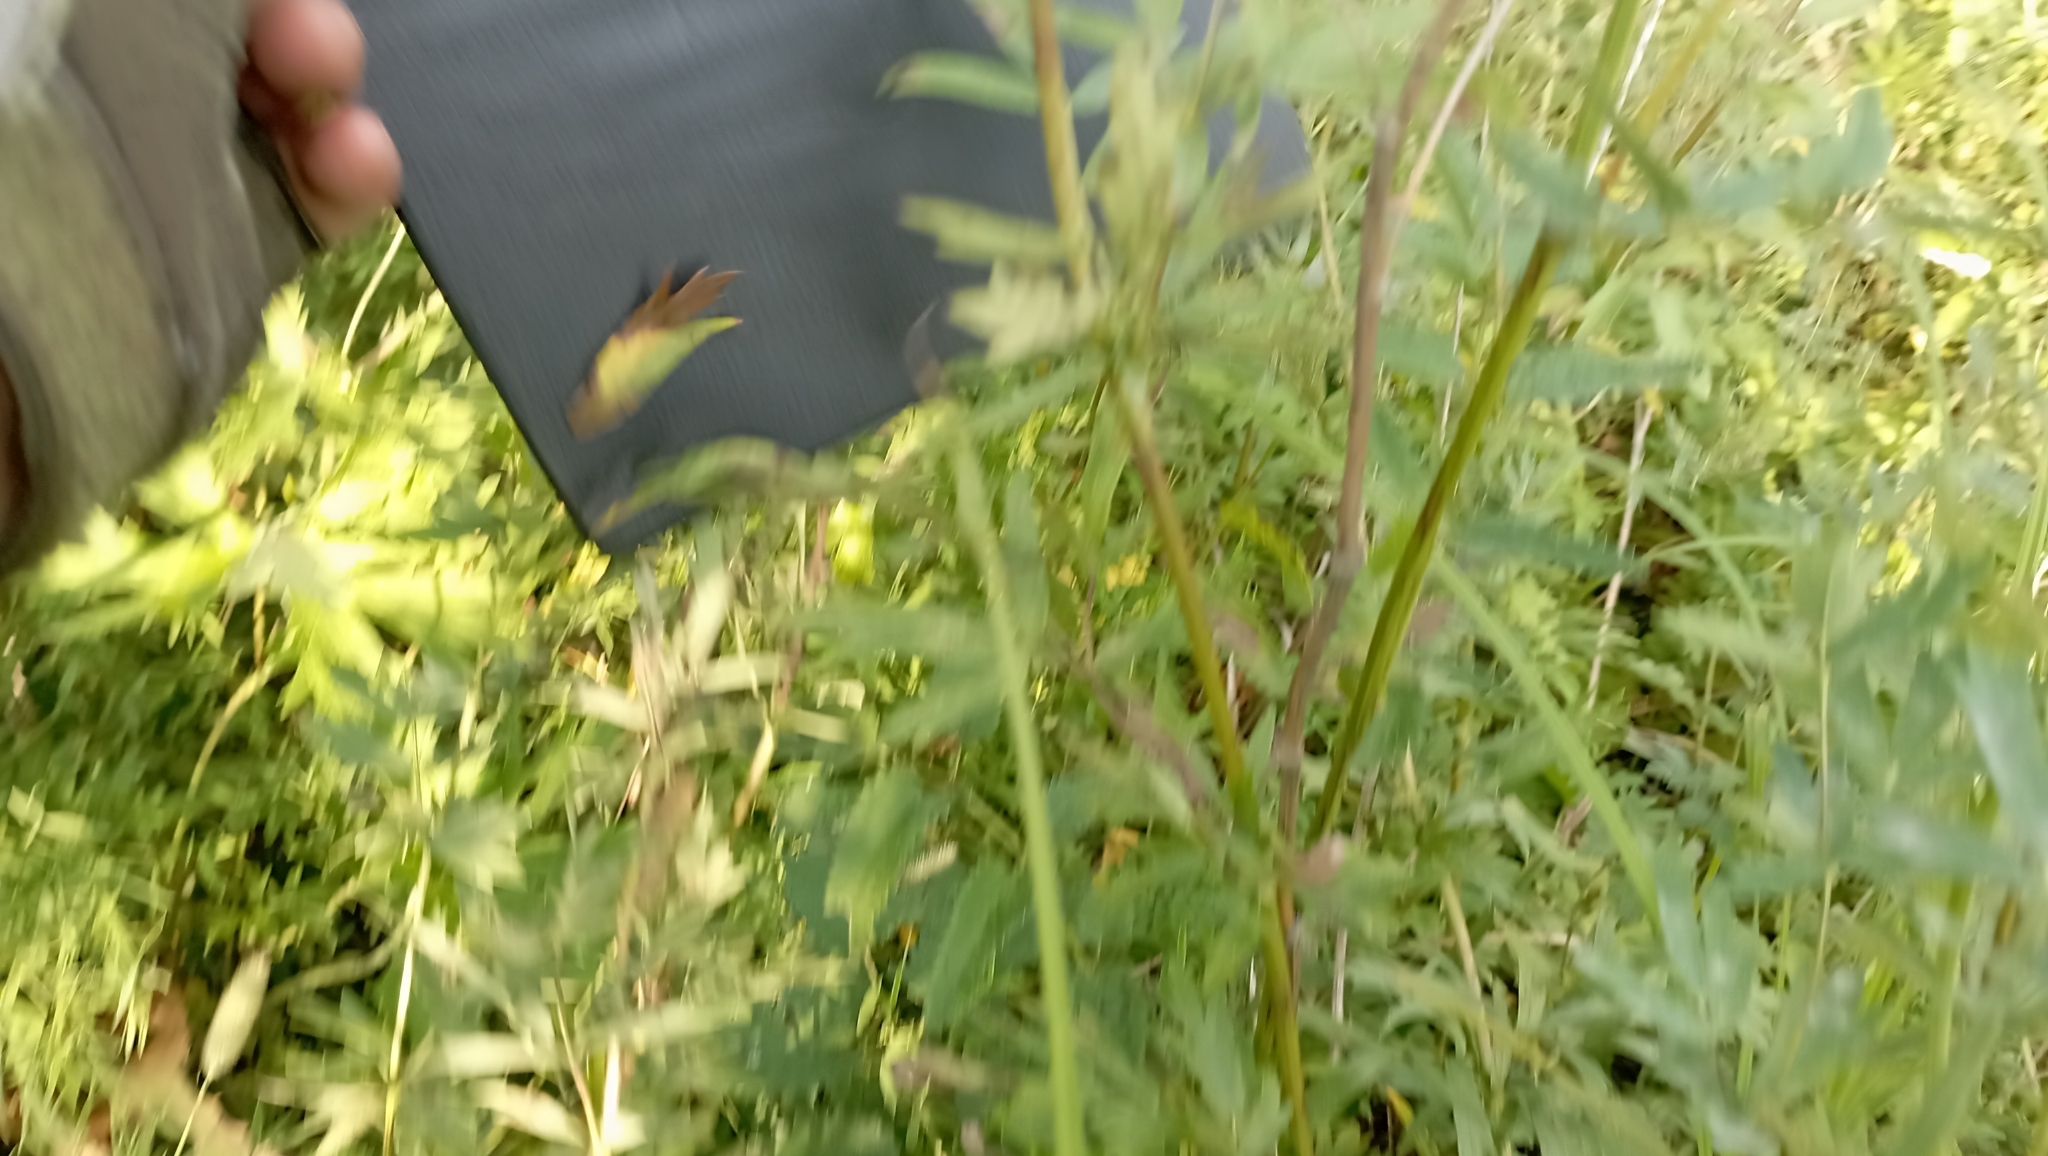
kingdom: Plantae
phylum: Tracheophyta
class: Magnoliopsida
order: Rosales
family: Rosaceae
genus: Sanguisorba
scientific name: Sanguisorba officinalis
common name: Great burnet
